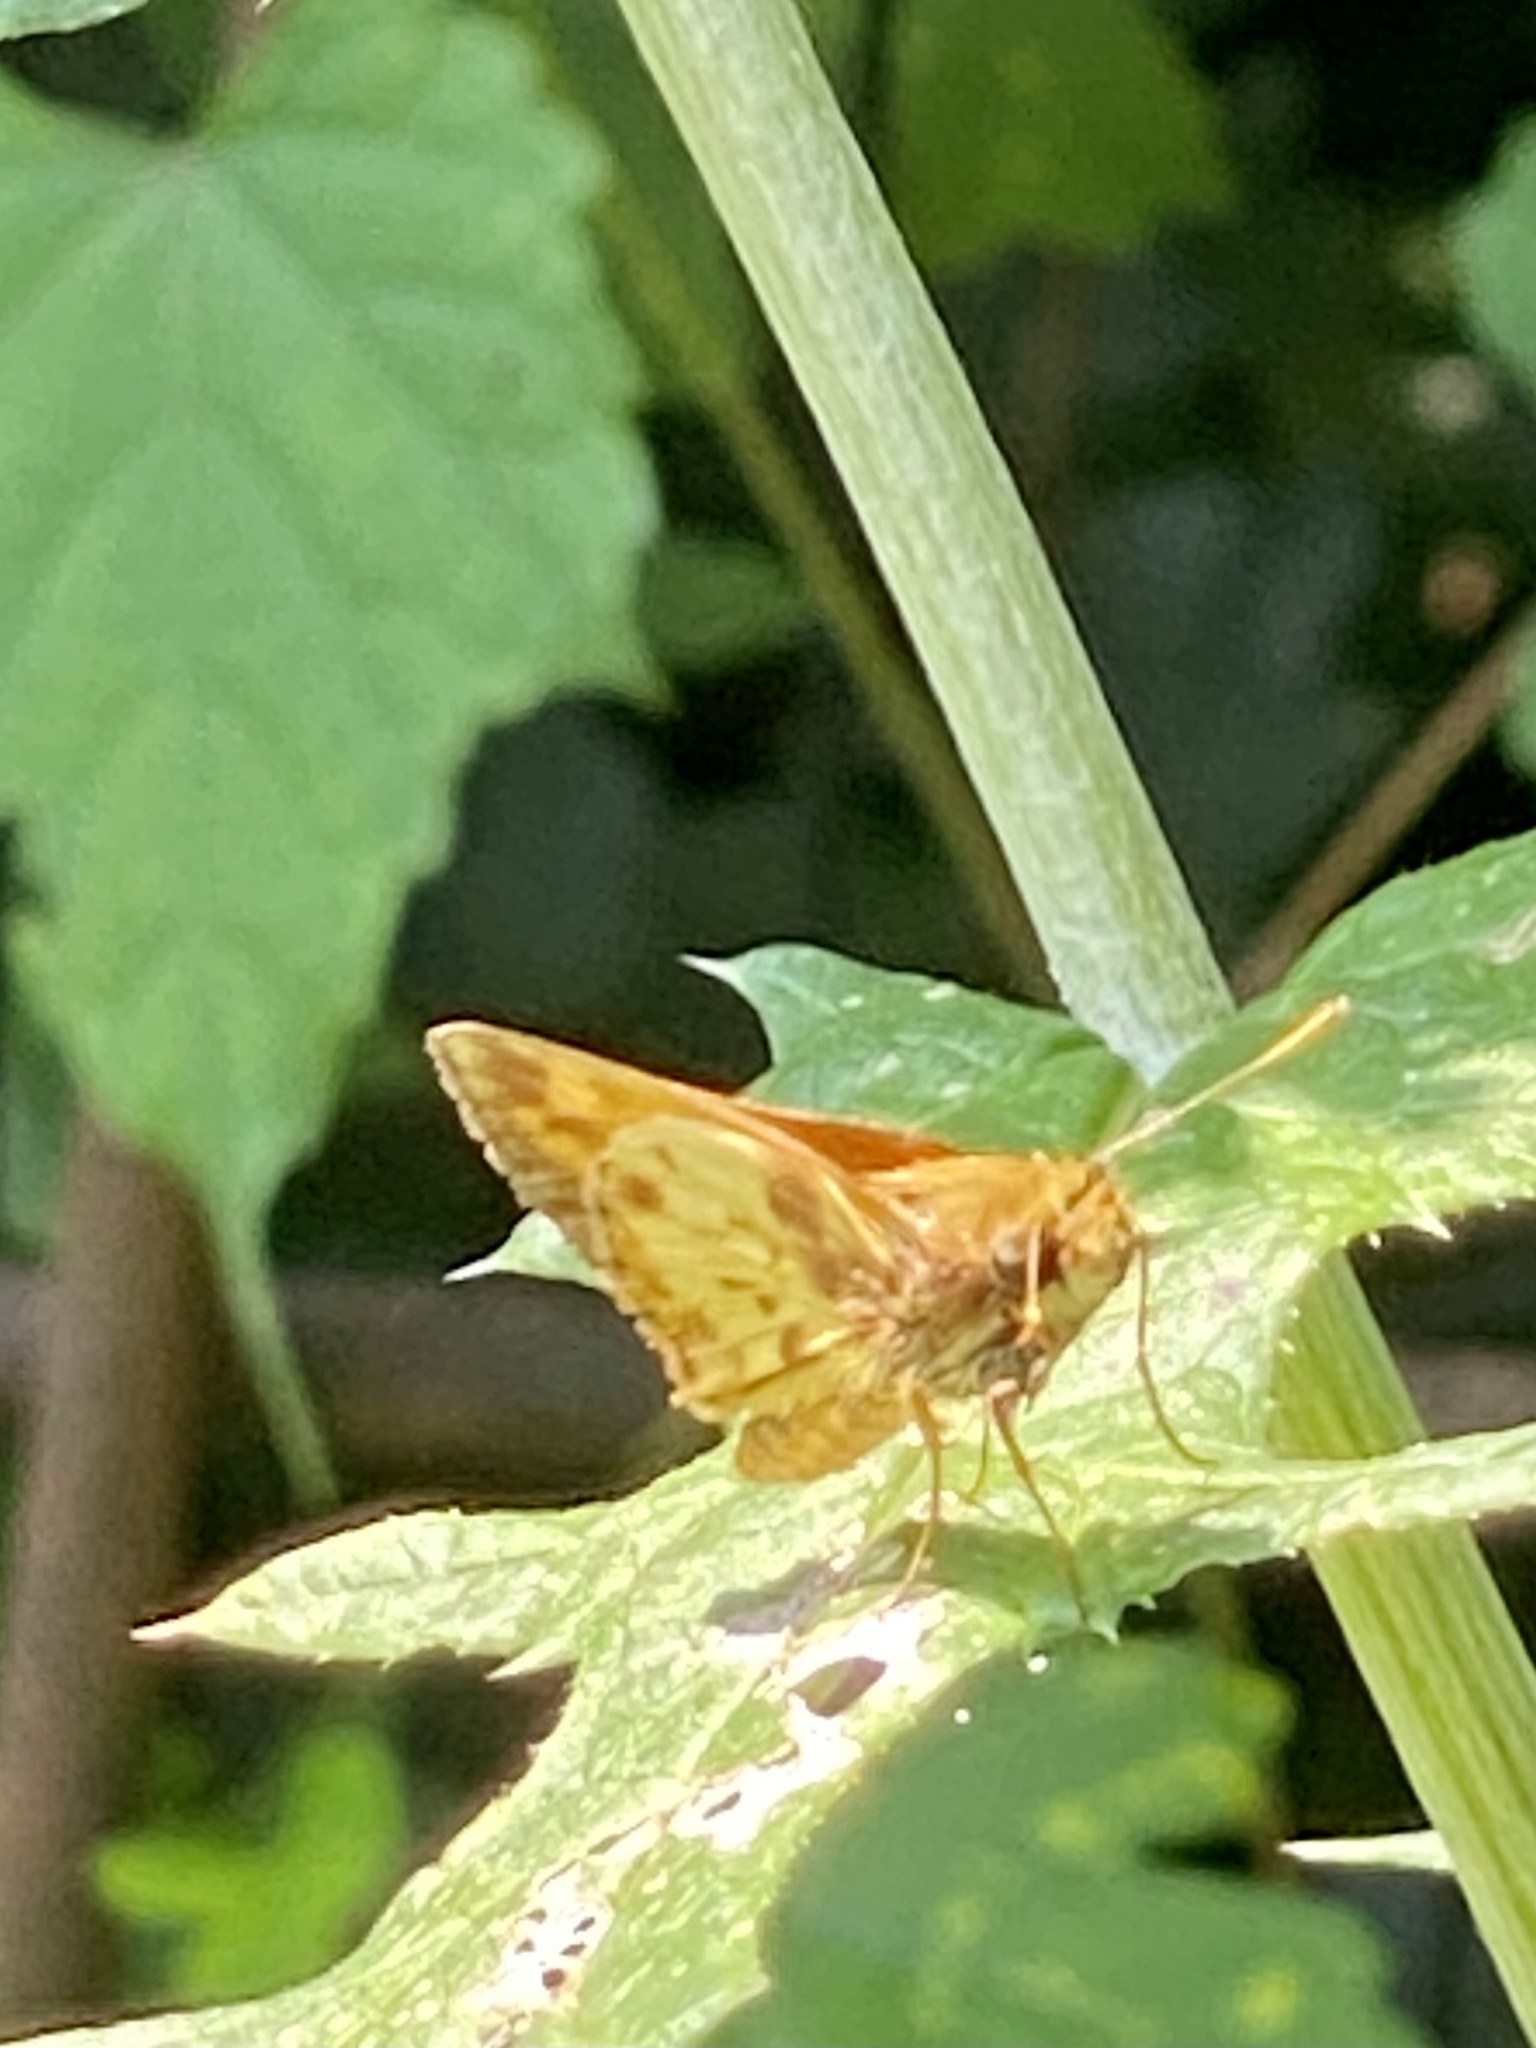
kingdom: Animalia
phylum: Arthropoda
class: Insecta
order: Lepidoptera
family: Hesperiidae
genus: Lon
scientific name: Lon zabulon
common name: Zabulon skipper
